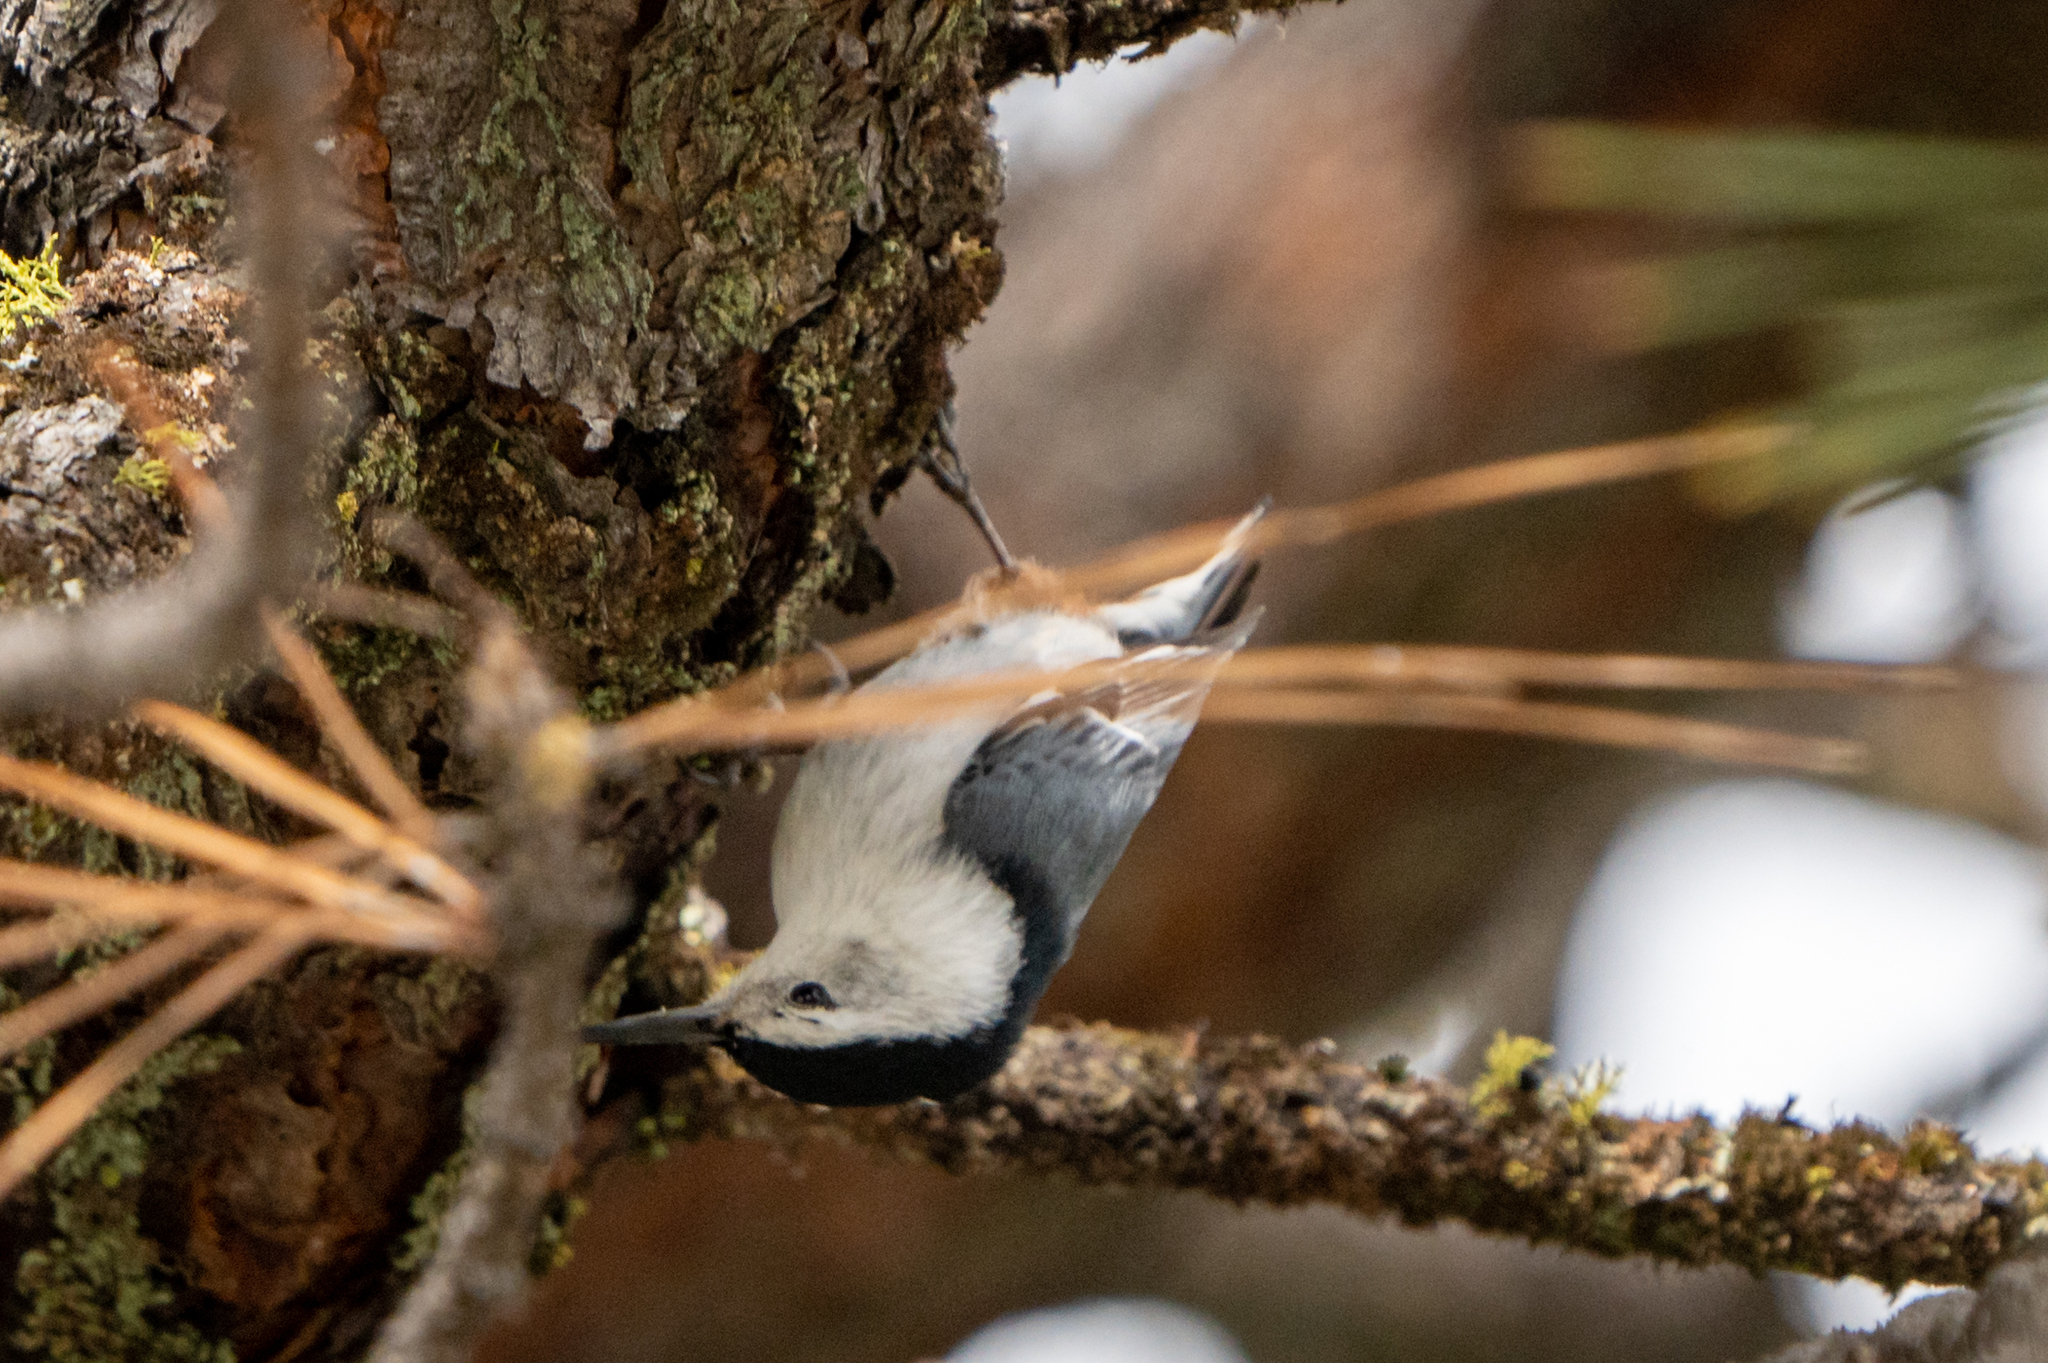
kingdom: Animalia
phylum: Chordata
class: Aves
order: Passeriformes
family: Sittidae
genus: Sitta
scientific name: Sitta carolinensis
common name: White-breasted nuthatch
